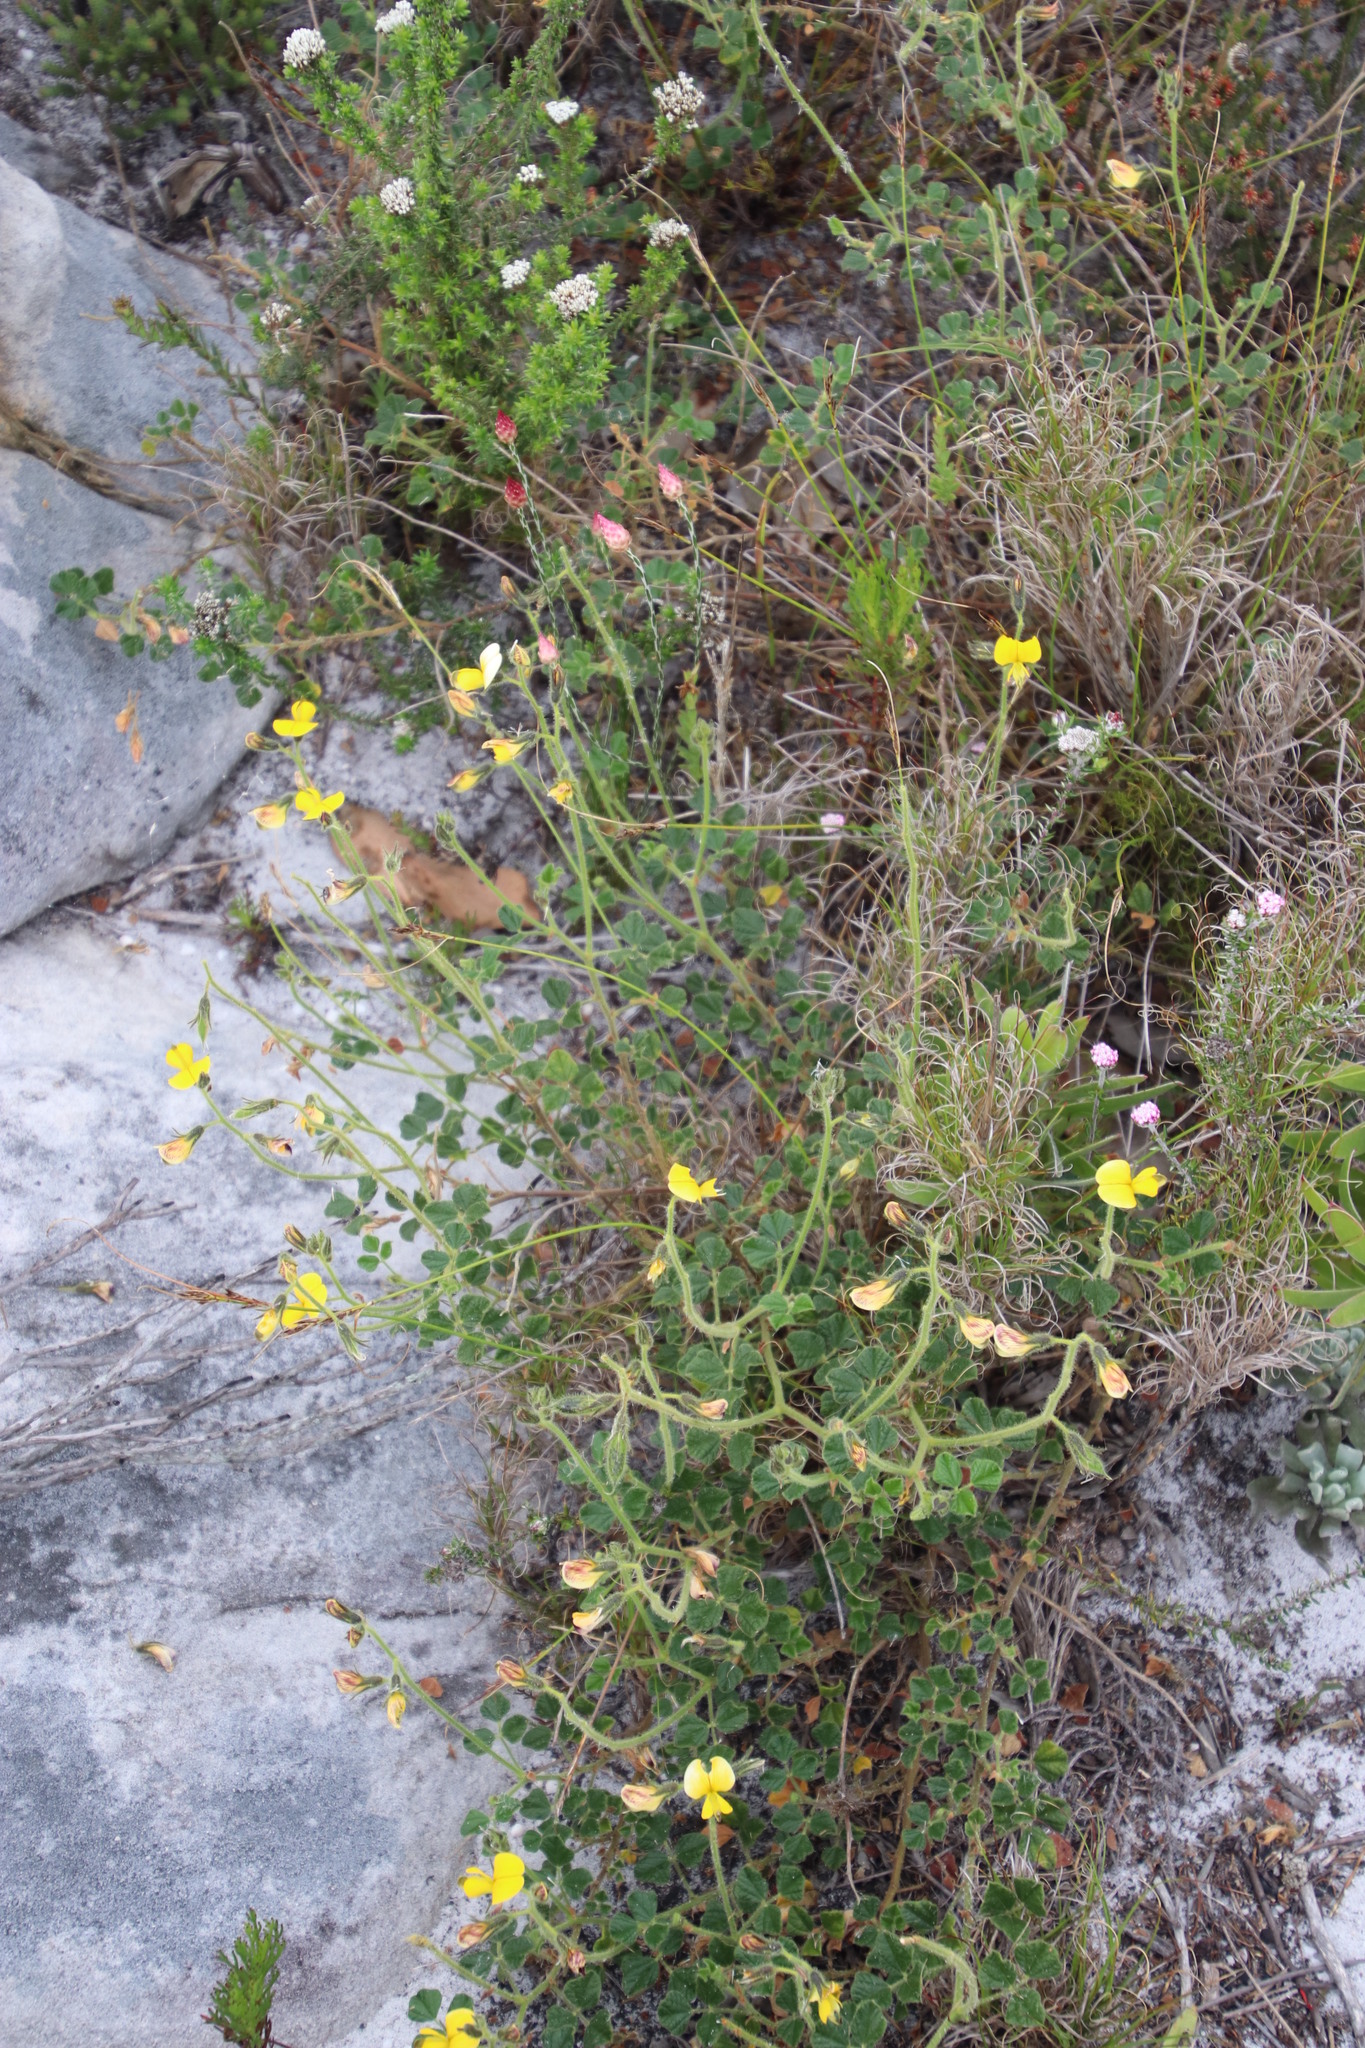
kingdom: Plantae
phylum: Tracheophyta
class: Magnoliopsida
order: Fabales
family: Fabaceae
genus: Bolusafra
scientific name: Bolusafra bituminosa
